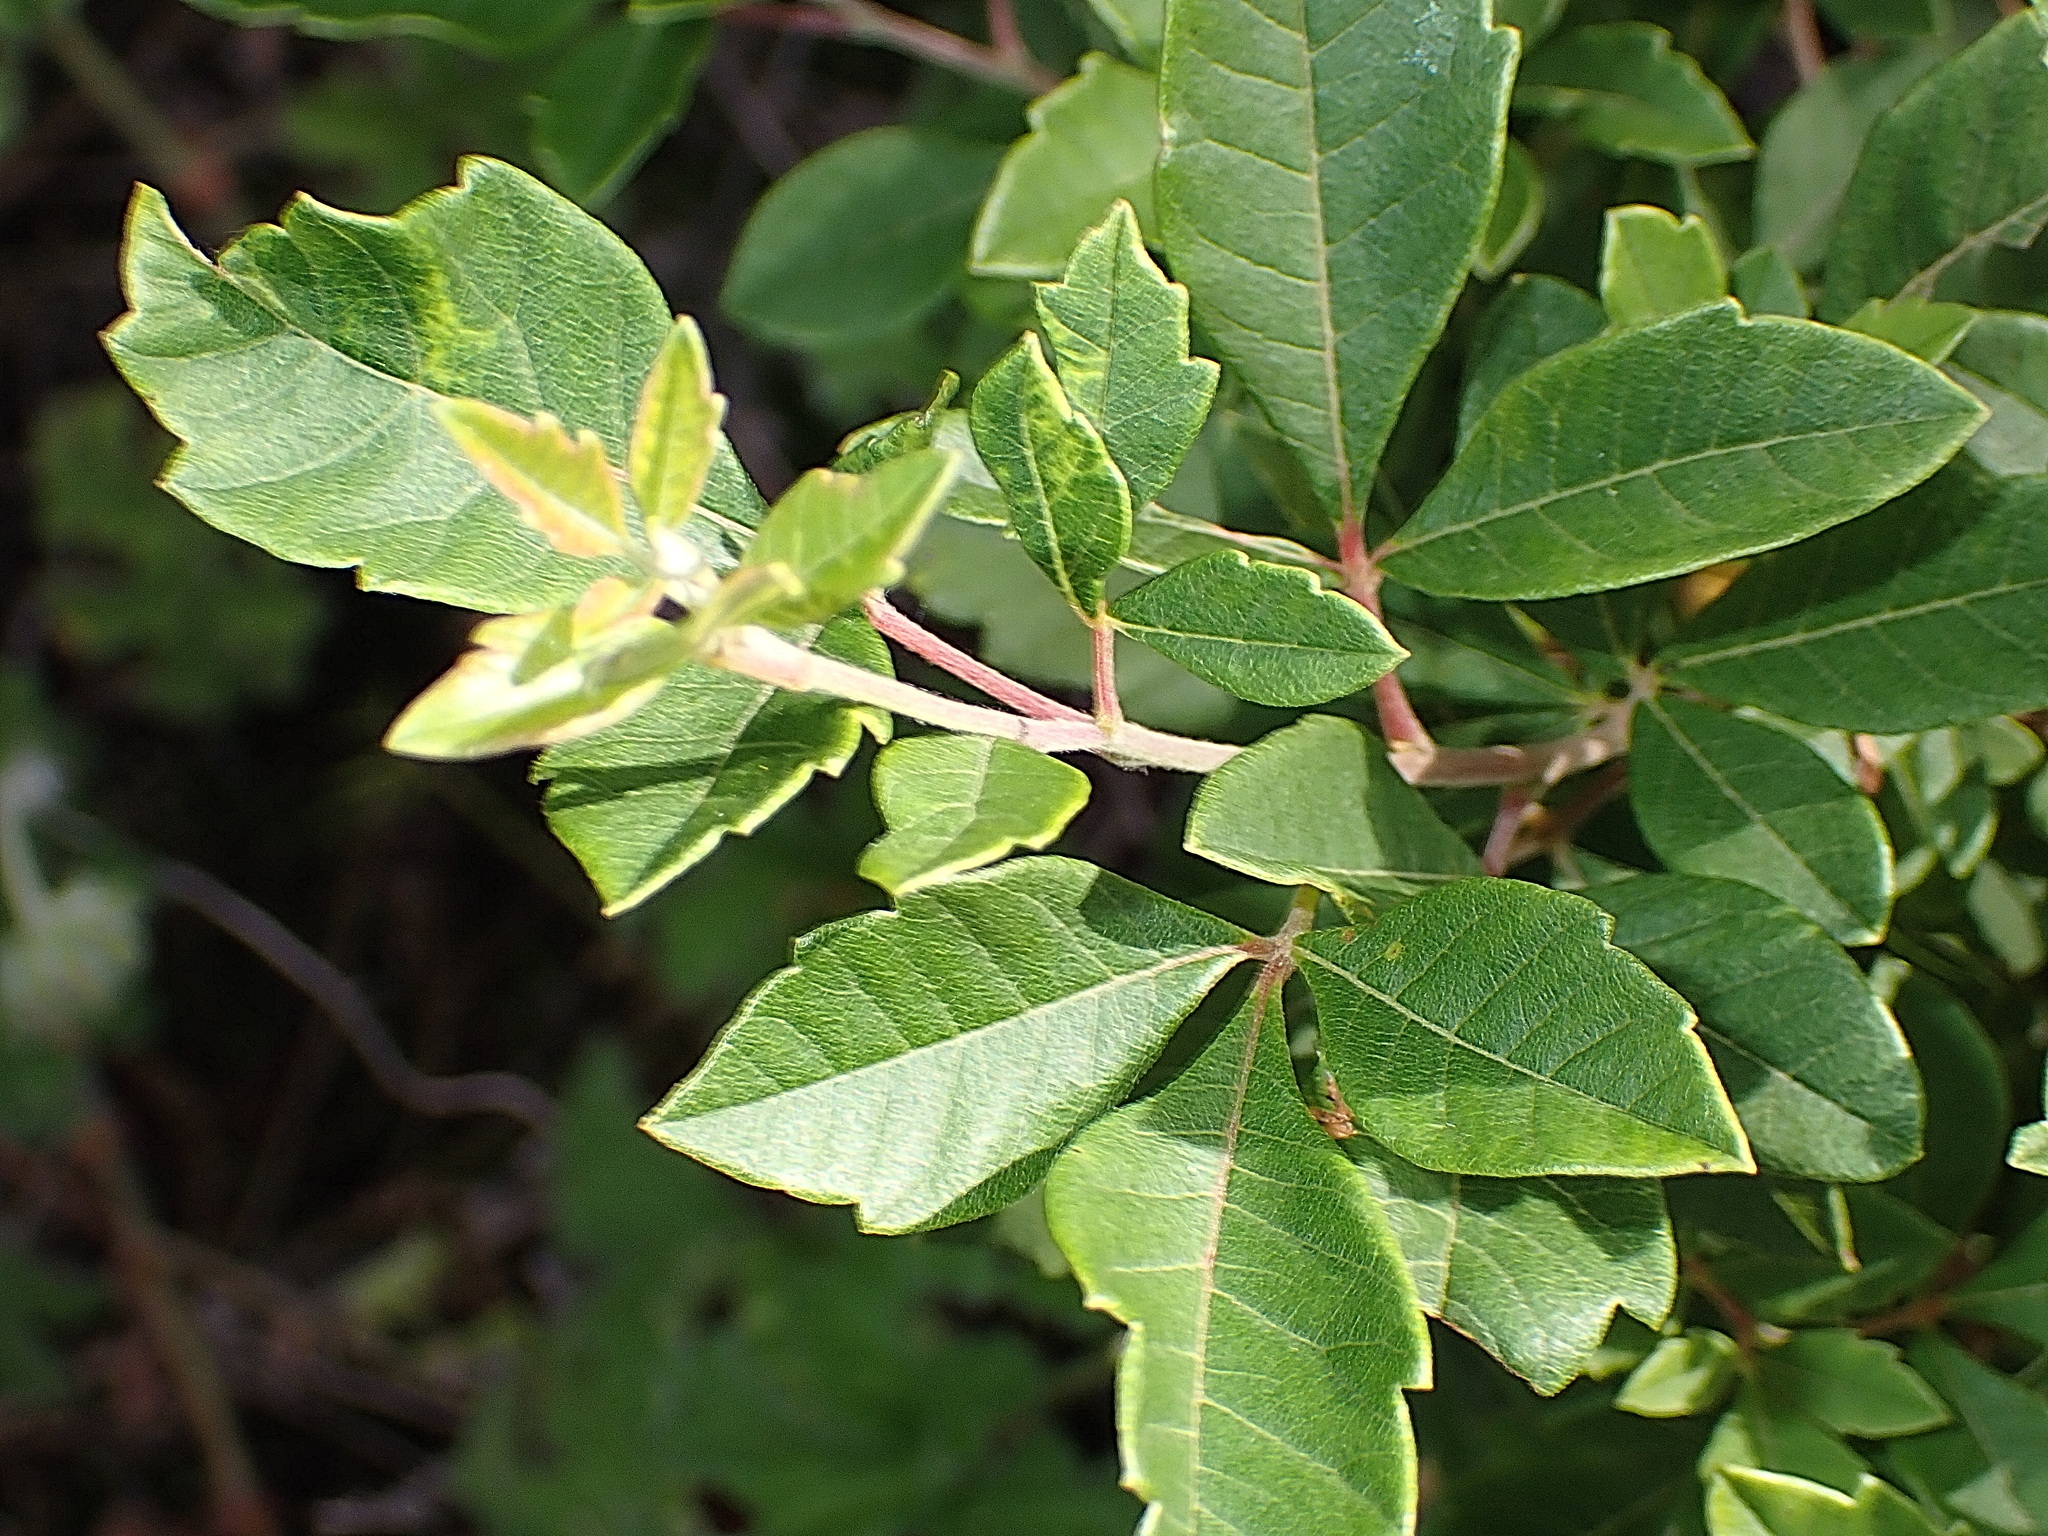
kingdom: Plantae
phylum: Tracheophyta
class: Magnoliopsida
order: Sapindales
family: Anacardiaceae
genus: Searsia
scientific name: Searsia tomentosa
